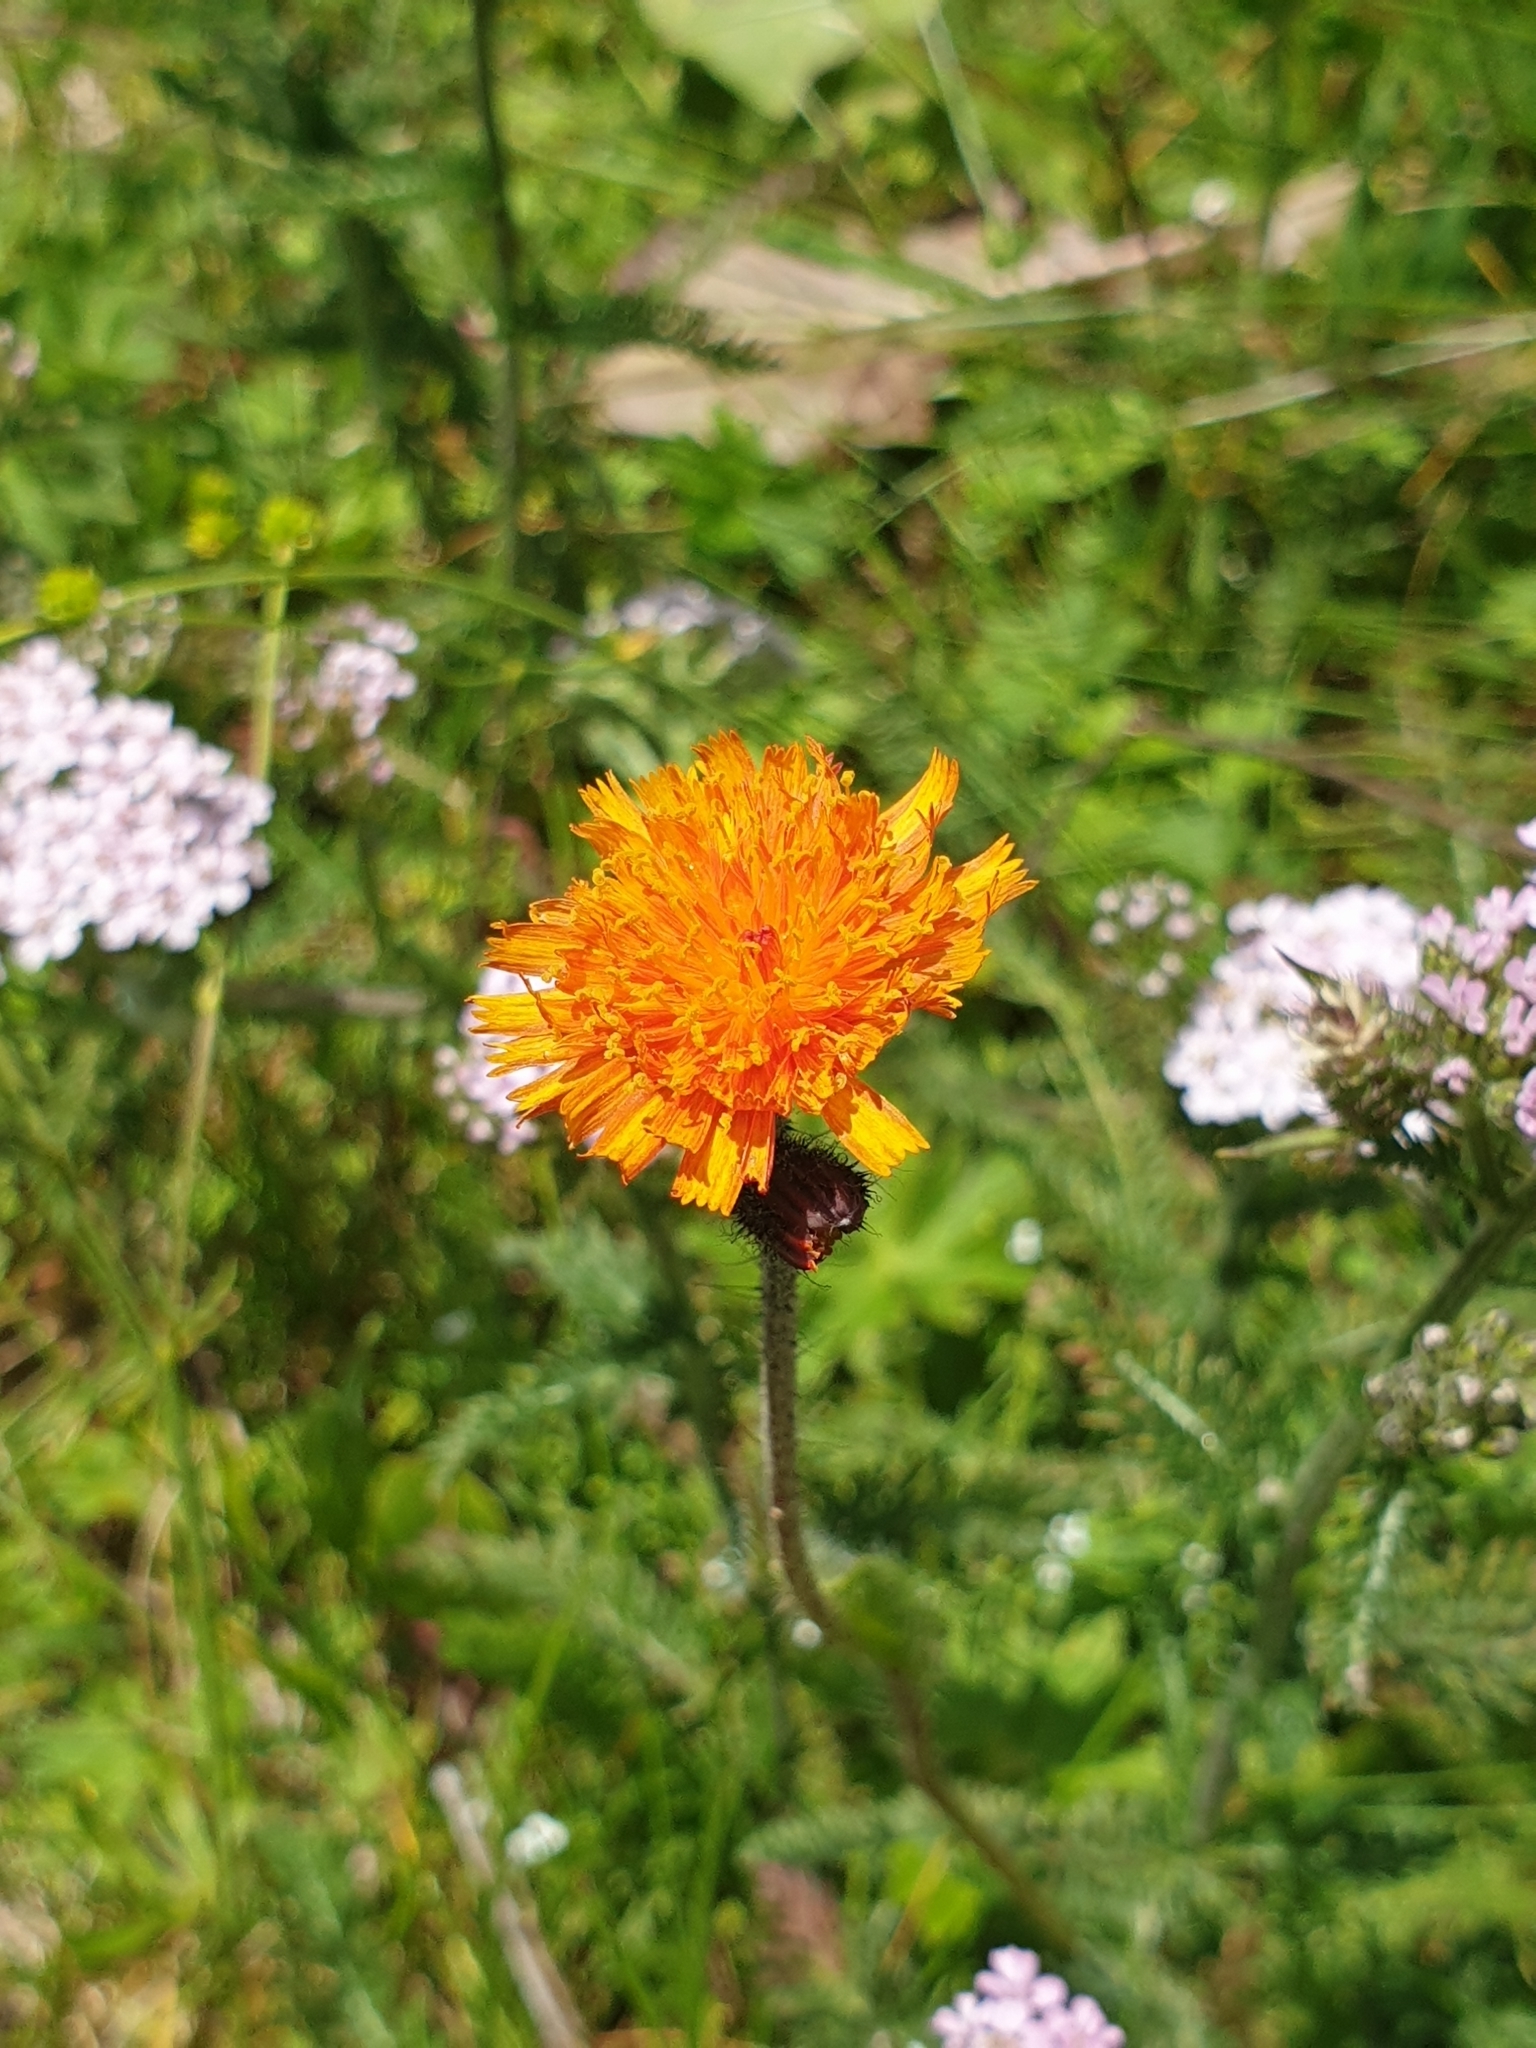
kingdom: Plantae
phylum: Tracheophyta
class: Magnoliopsida
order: Asterales
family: Asteraceae
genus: Pilosella
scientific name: Pilosella aurantiaca
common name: Fox-and-cubs
